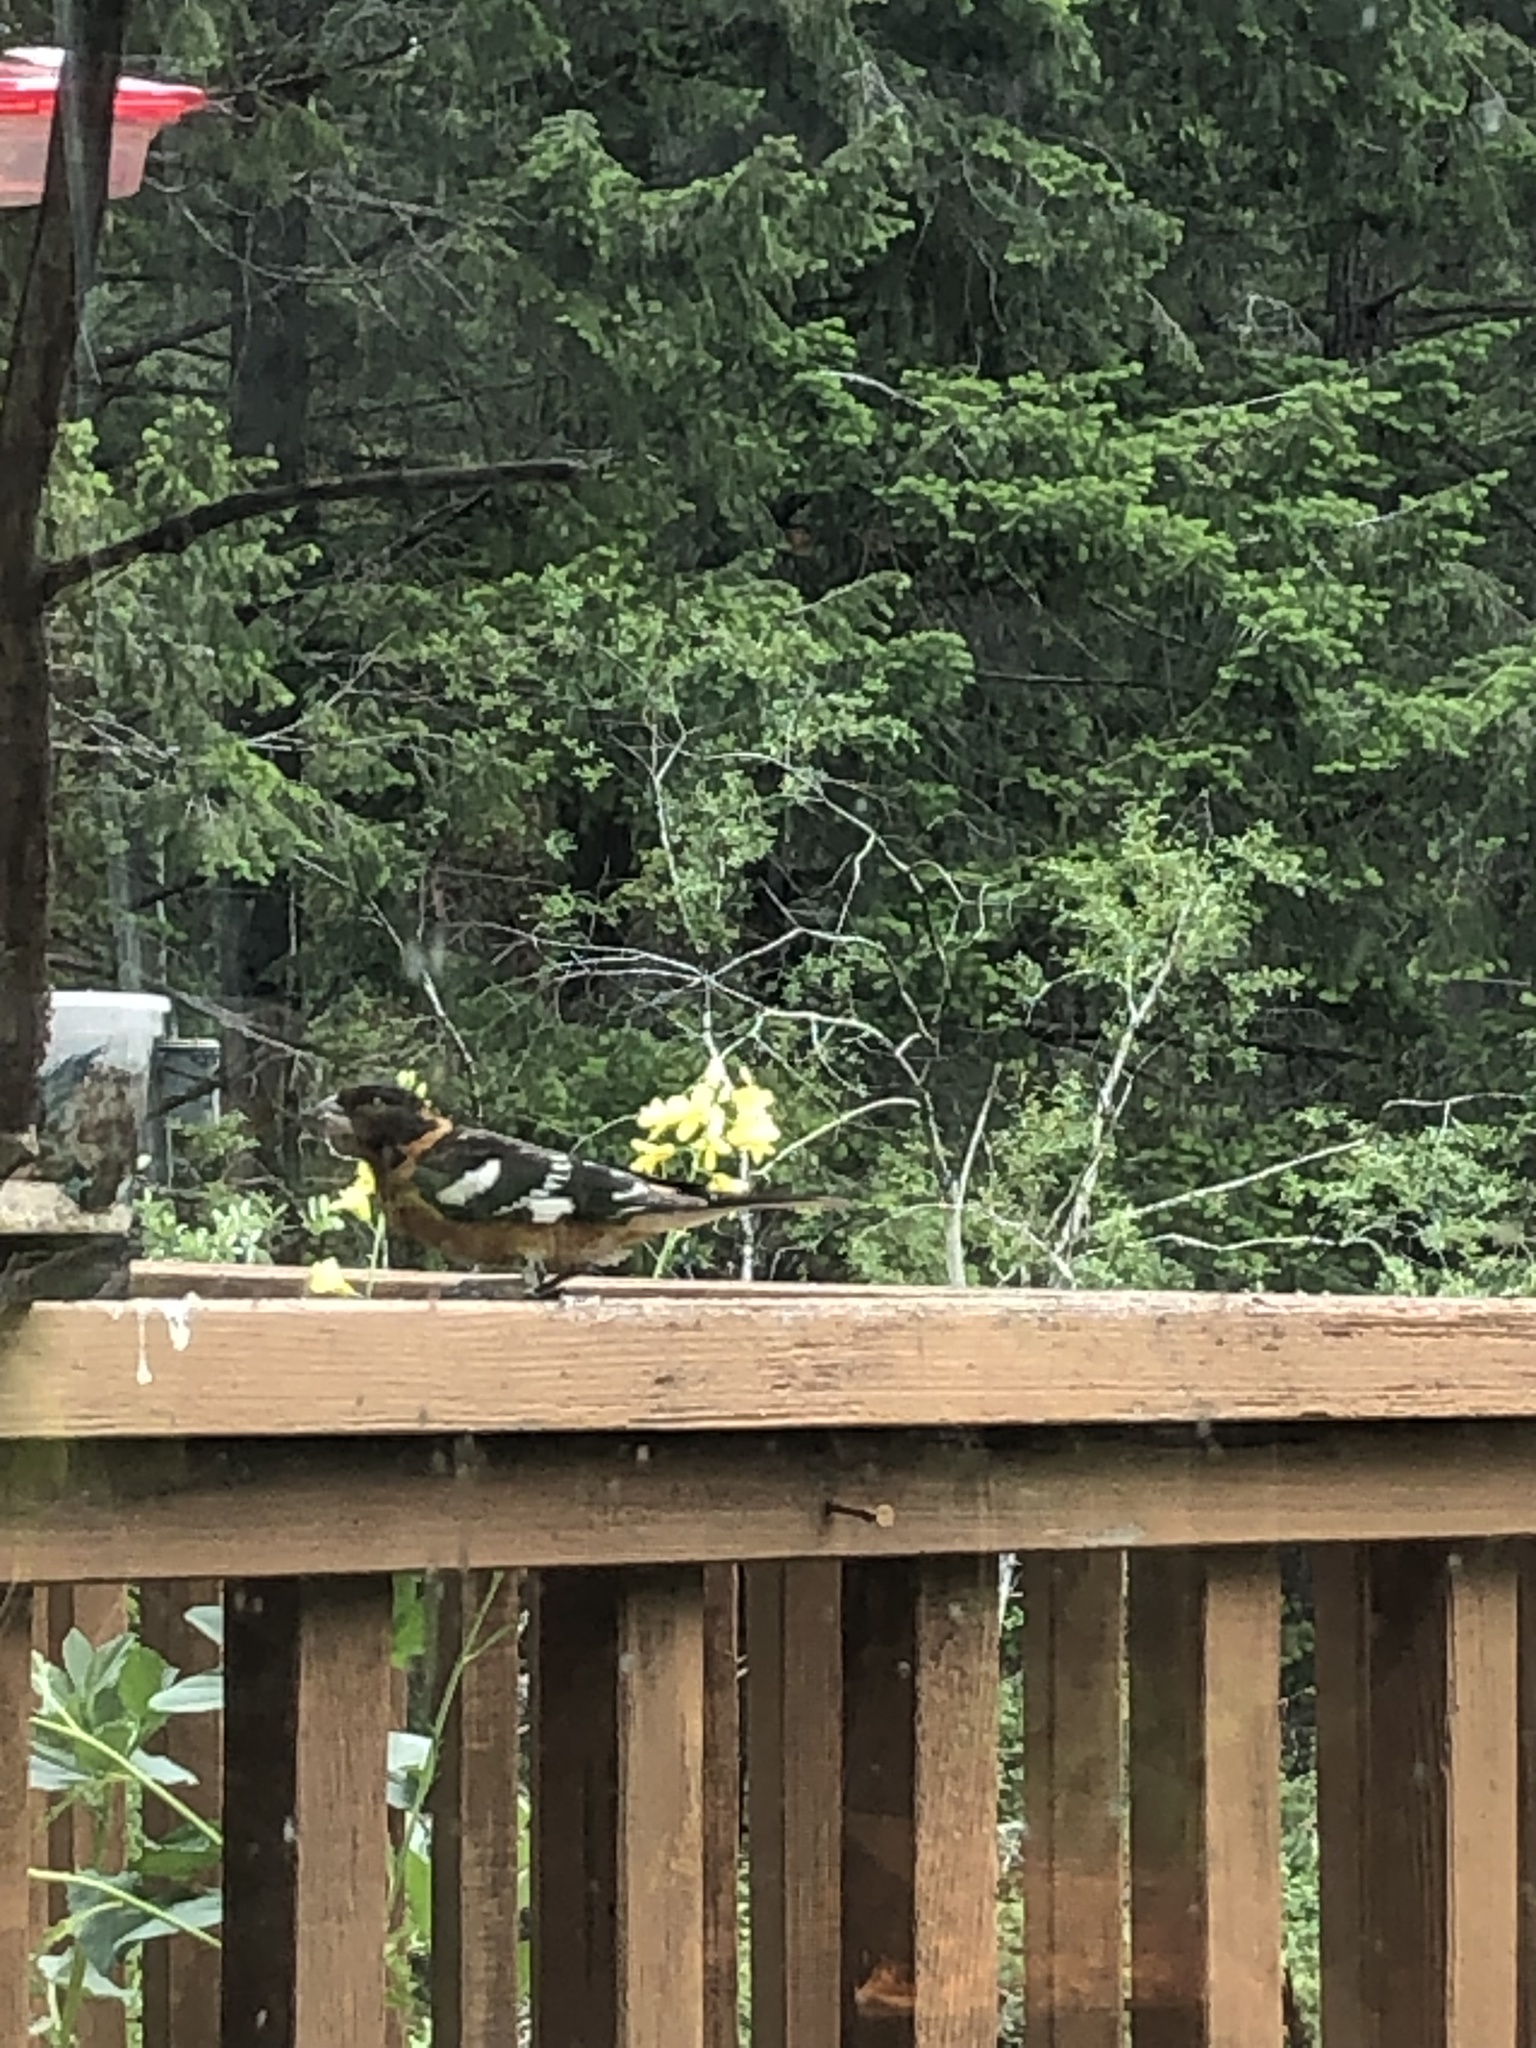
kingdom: Animalia
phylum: Chordata
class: Aves
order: Passeriformes
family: Cardinalidae
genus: Pheucticus
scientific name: Pheucticus melanocephalus
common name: Black-headed grosbeak
